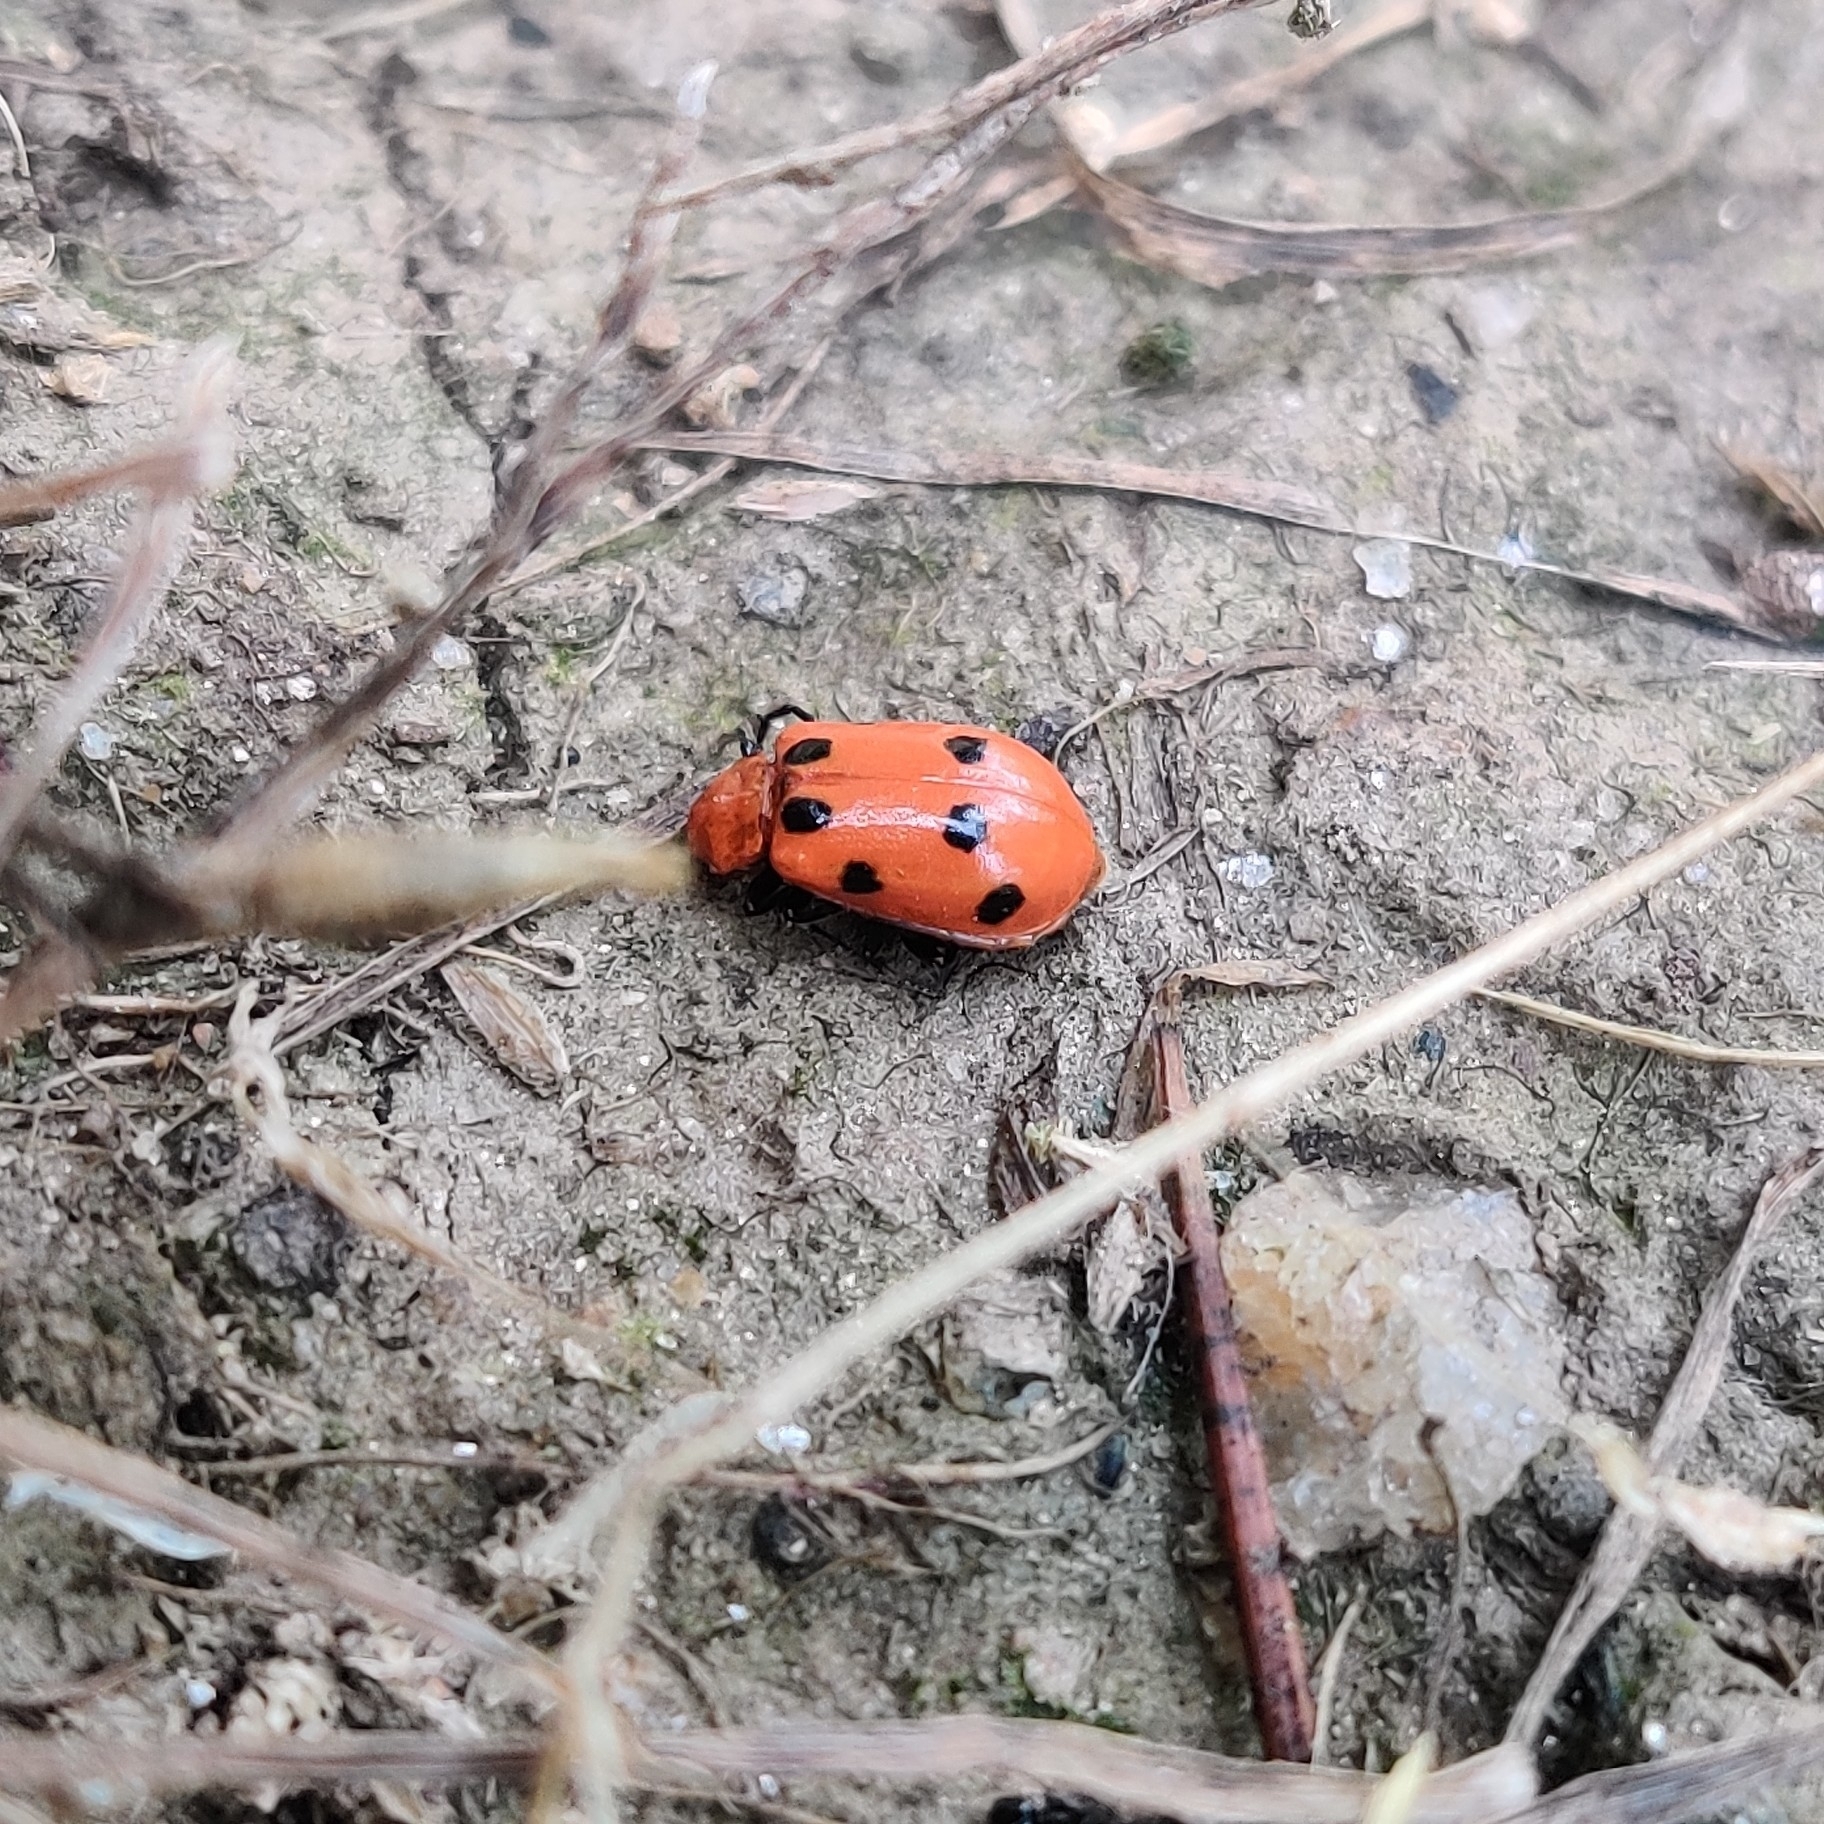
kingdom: Animalia
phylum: Arthropoda
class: Insecta
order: Coleoptera
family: Chrysomelidae
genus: Paridea
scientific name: Paridea
